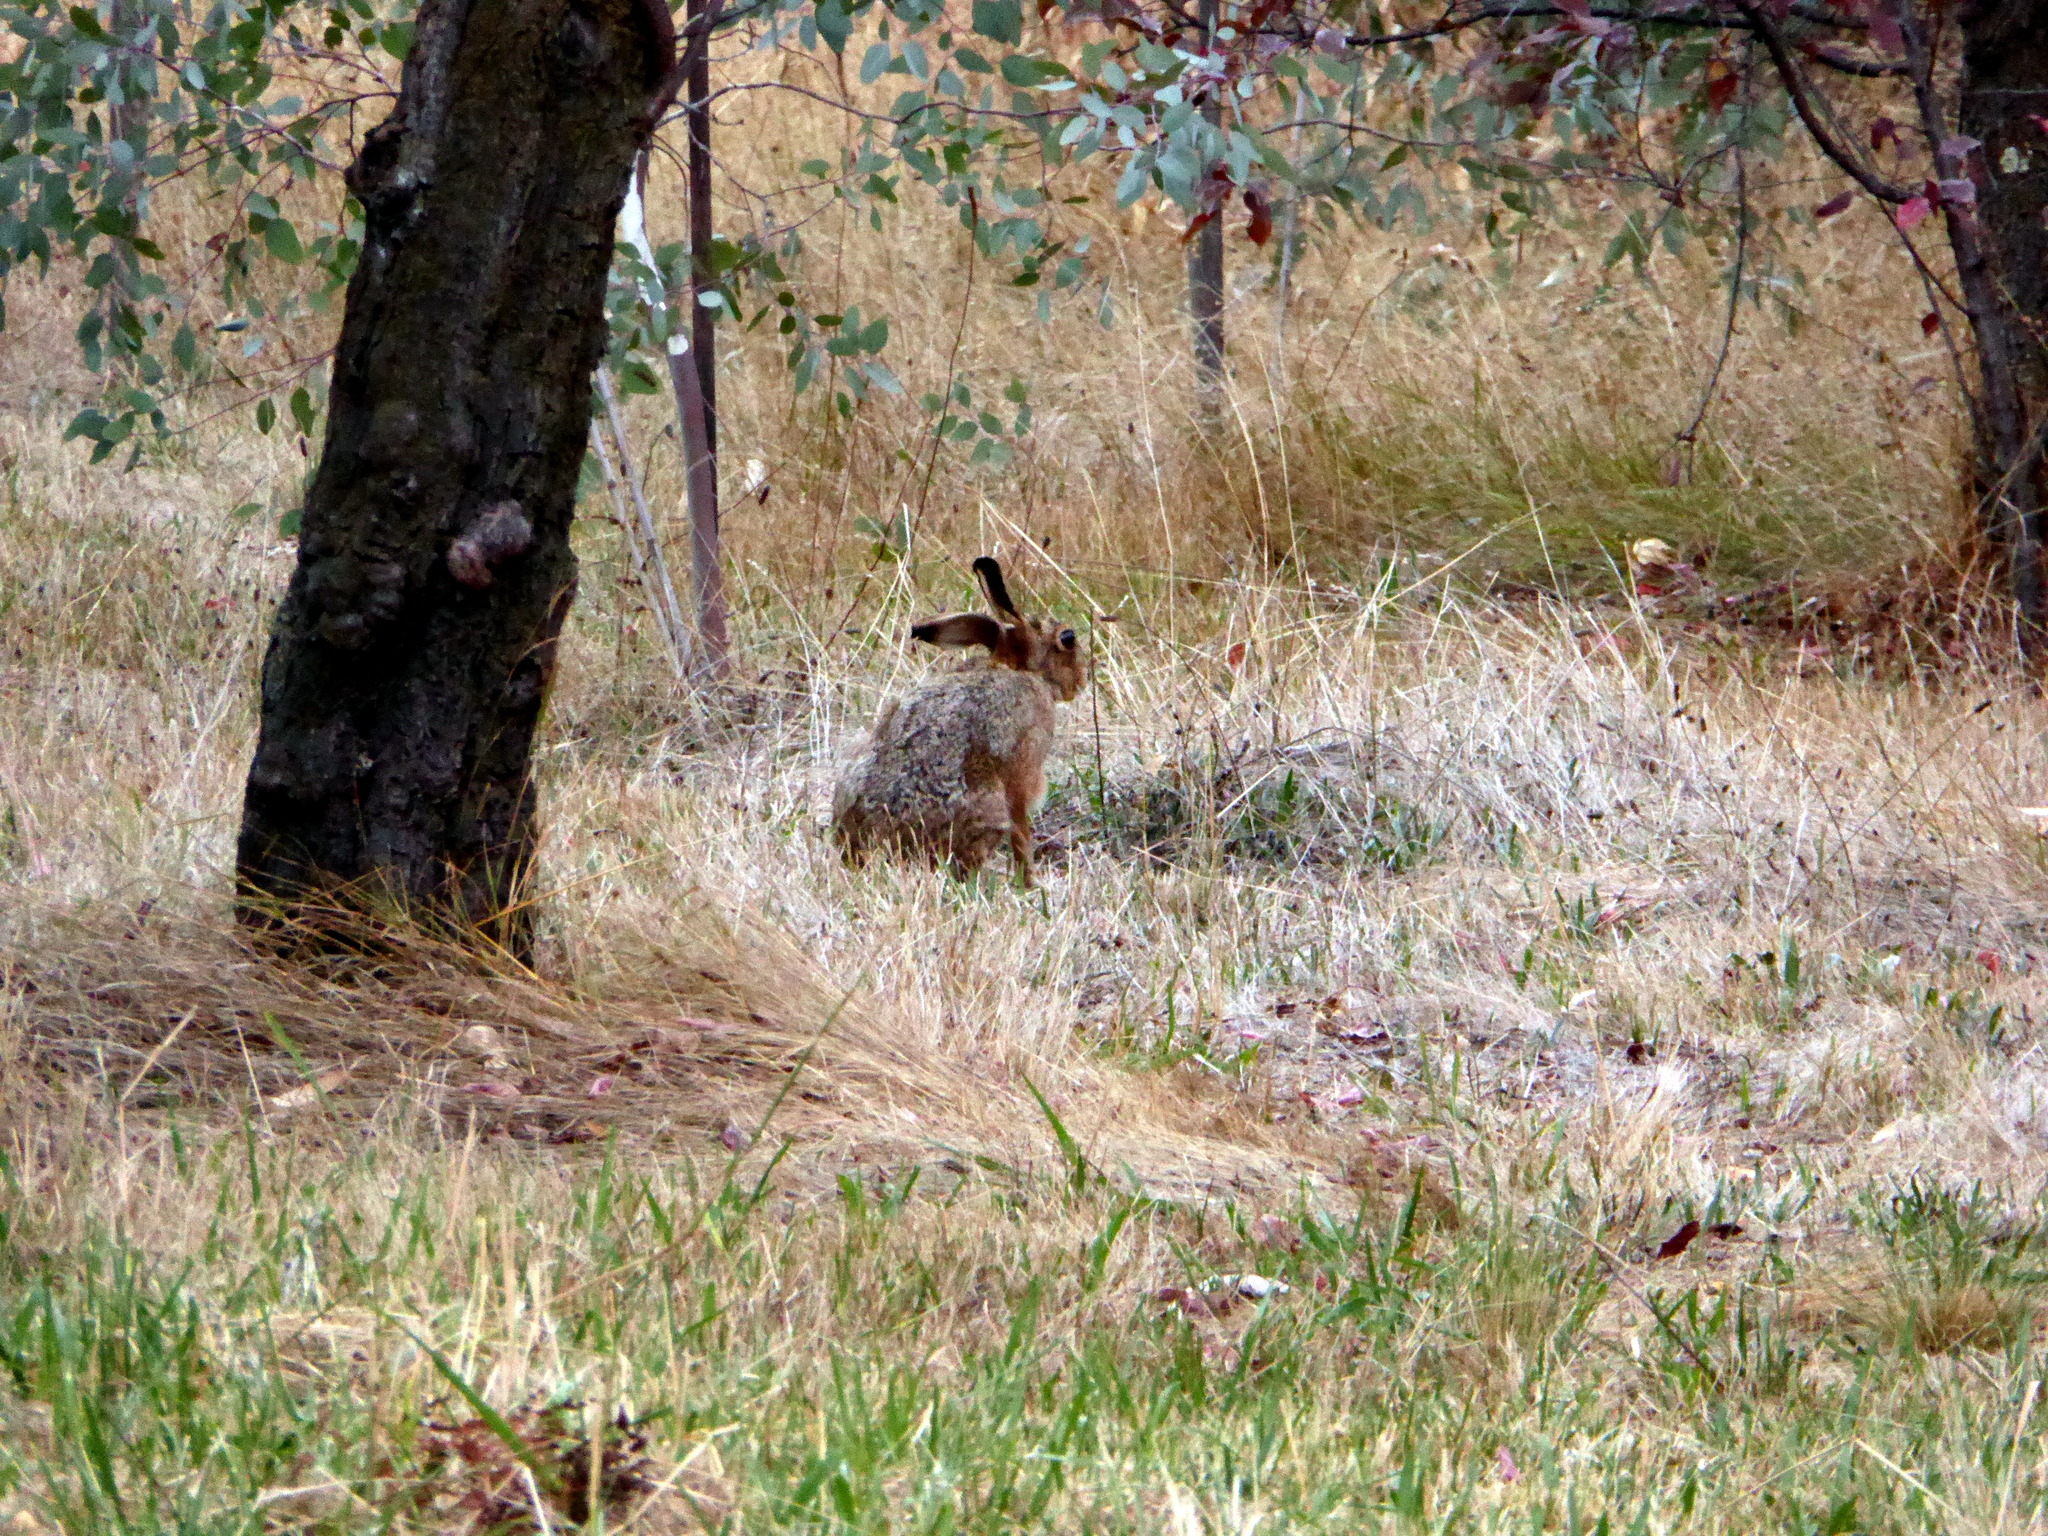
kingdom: Animalia
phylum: Chordata
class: Mammalia
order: Lagomorpha
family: Leporidae
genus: Lepus
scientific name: Lepus europaeus
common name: European hare
